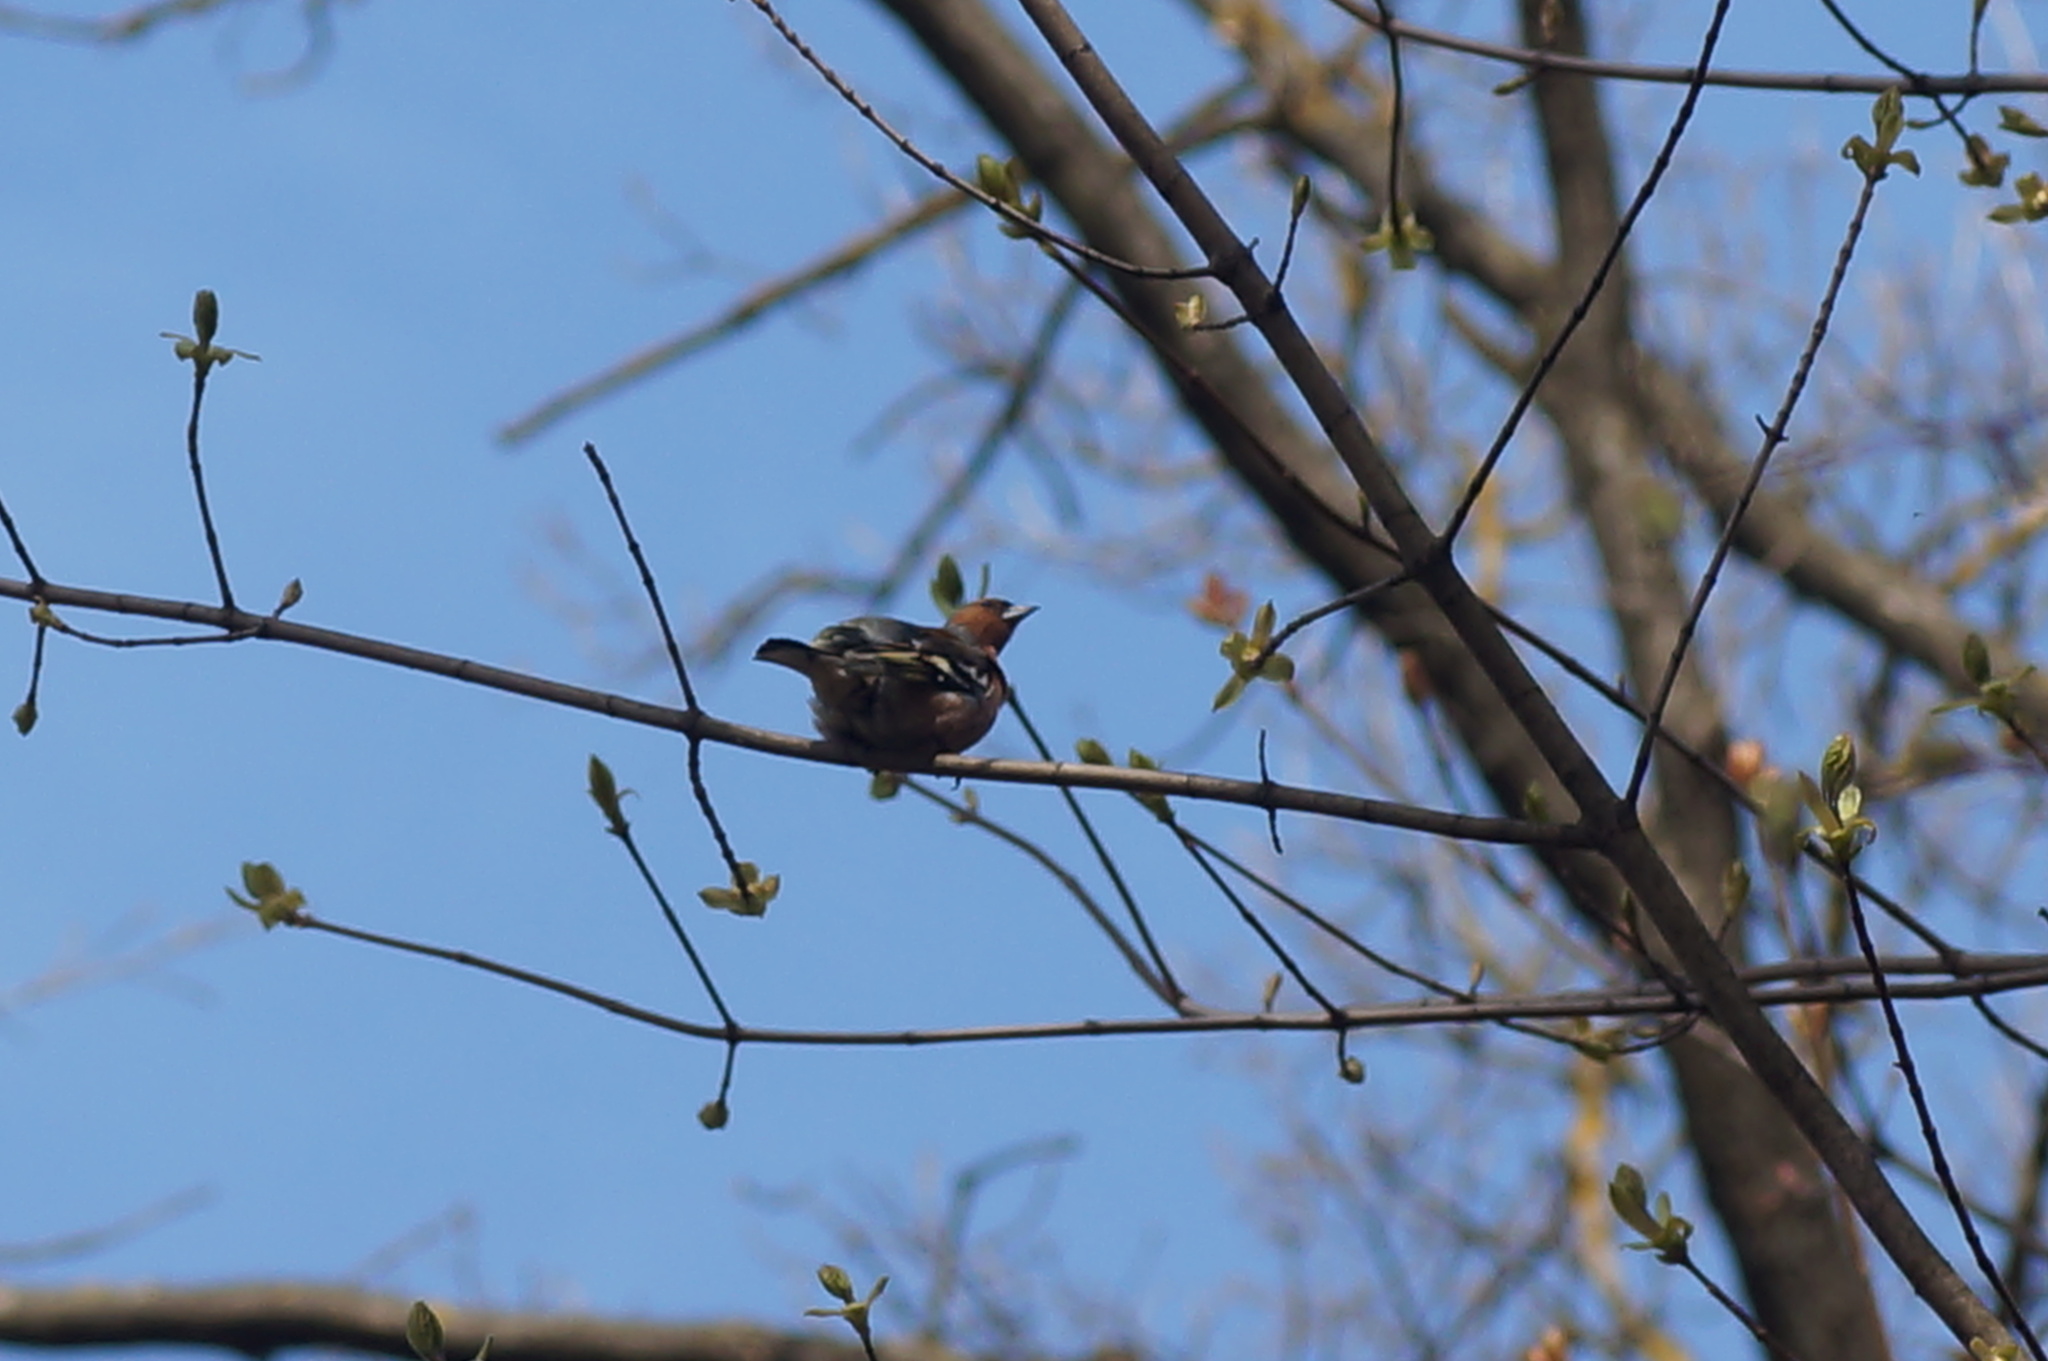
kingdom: Animalia
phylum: Chordata
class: Aves
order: Passeriformes
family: Fringillidae
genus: Fringilla
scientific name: Fringilla coelebs
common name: Common chaffinch
